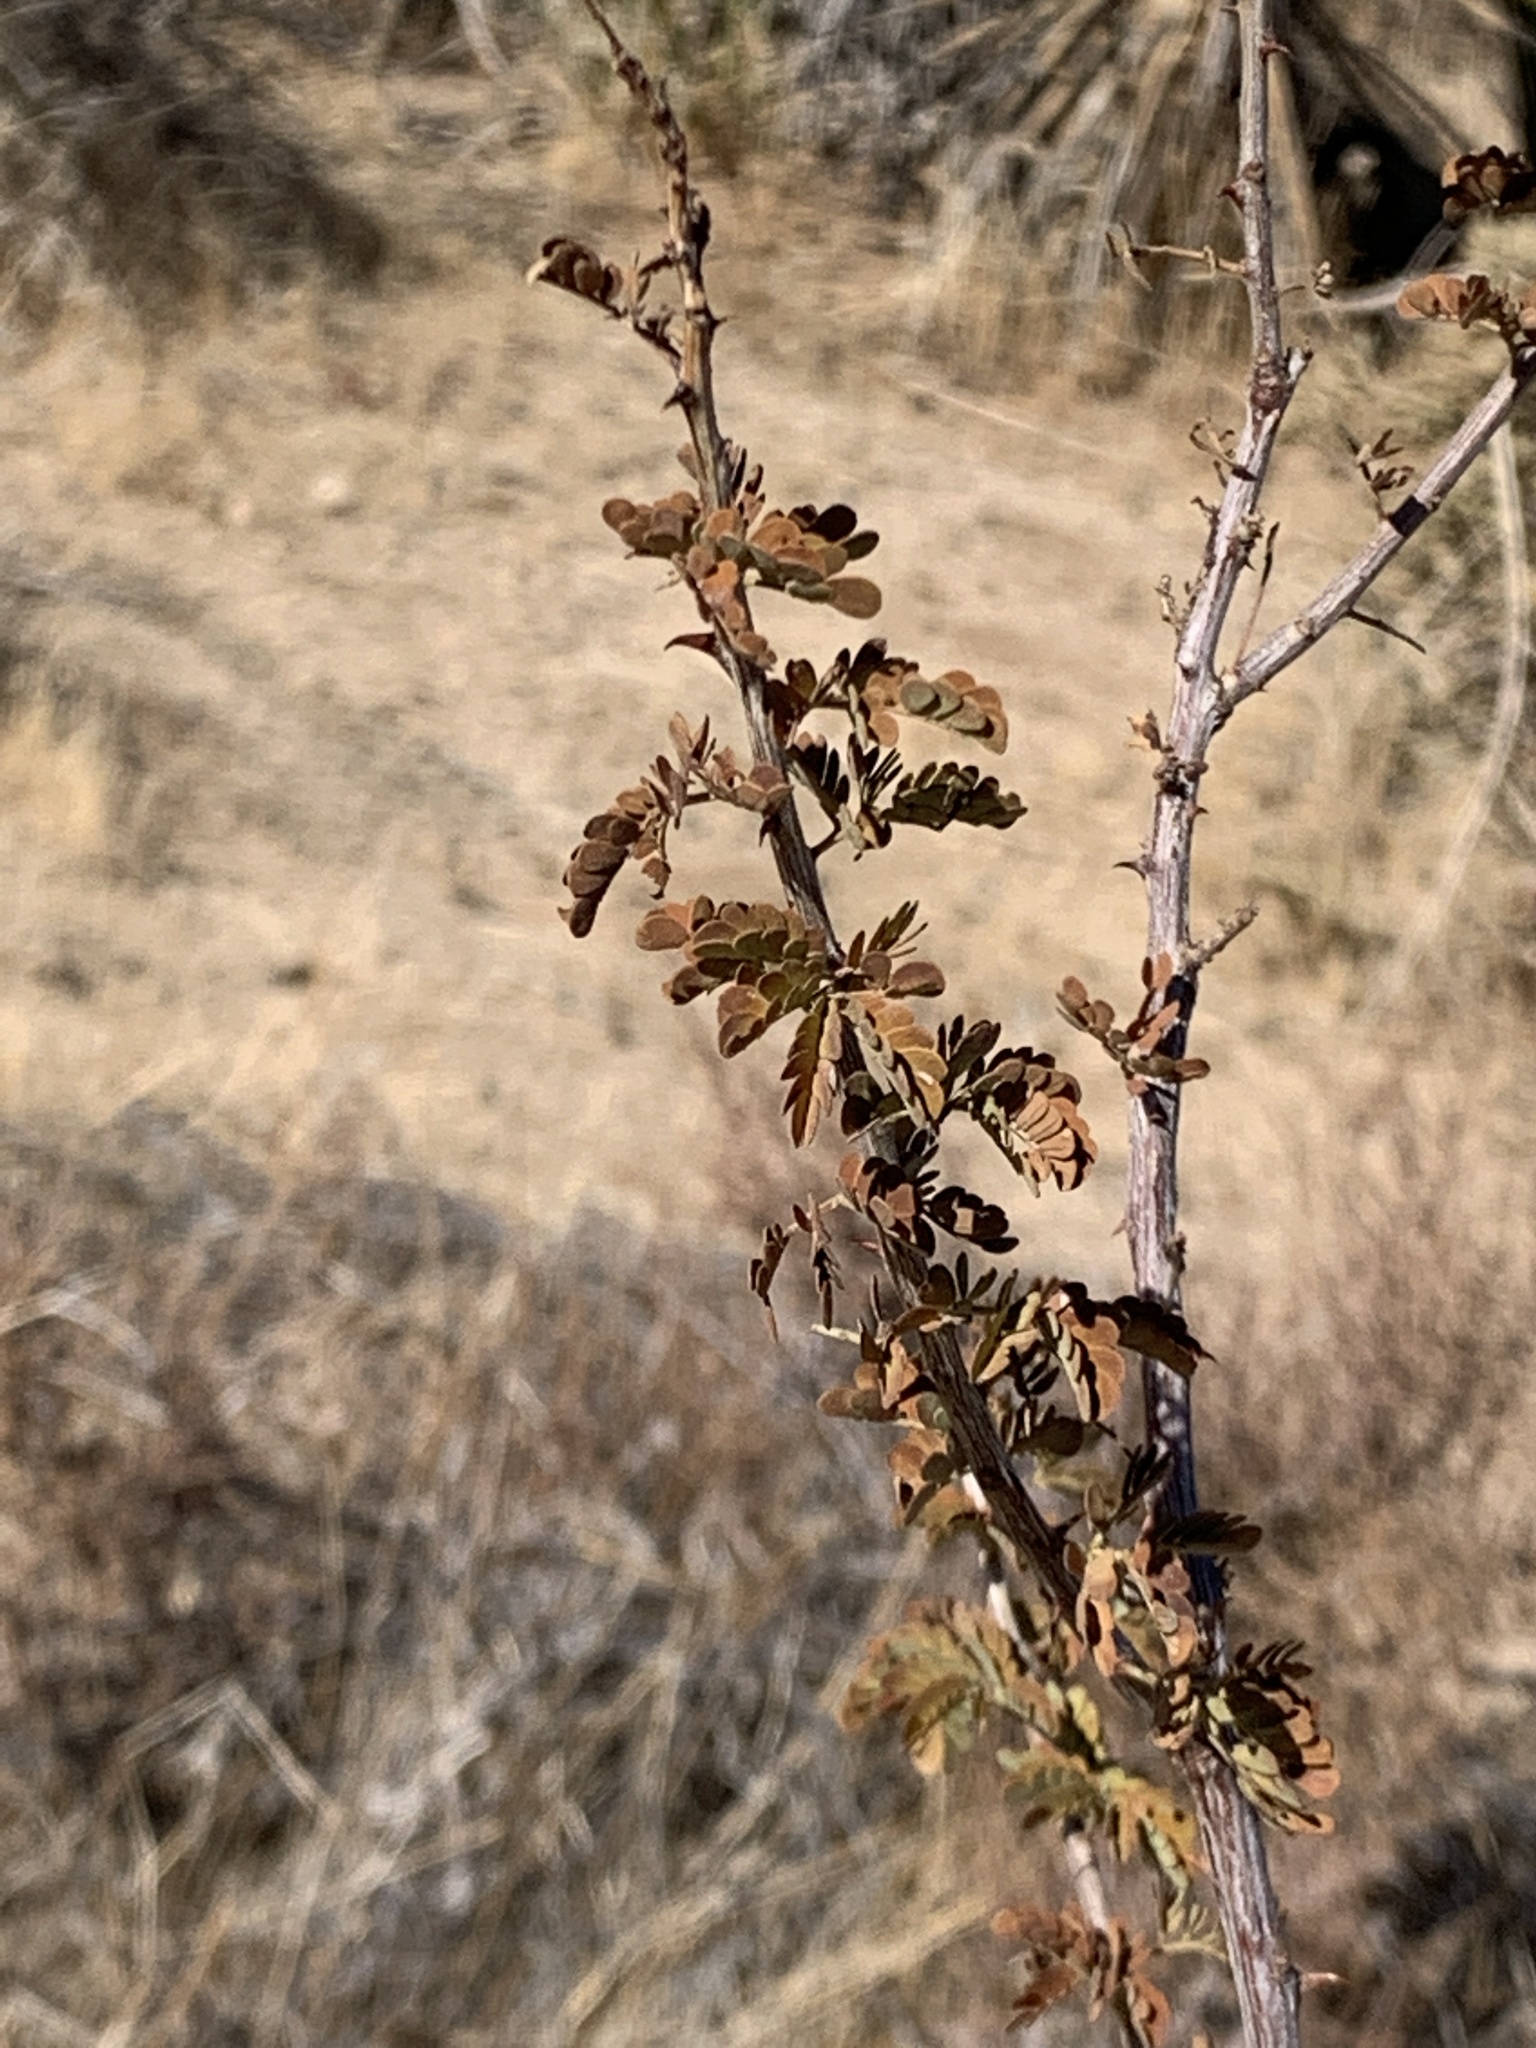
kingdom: Plantae
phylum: Tracheophyta
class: Magnoliopsida
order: Fabales
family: Fabaceae
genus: Senegalia
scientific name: Senegalia greggii
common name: Texas-mimosa
